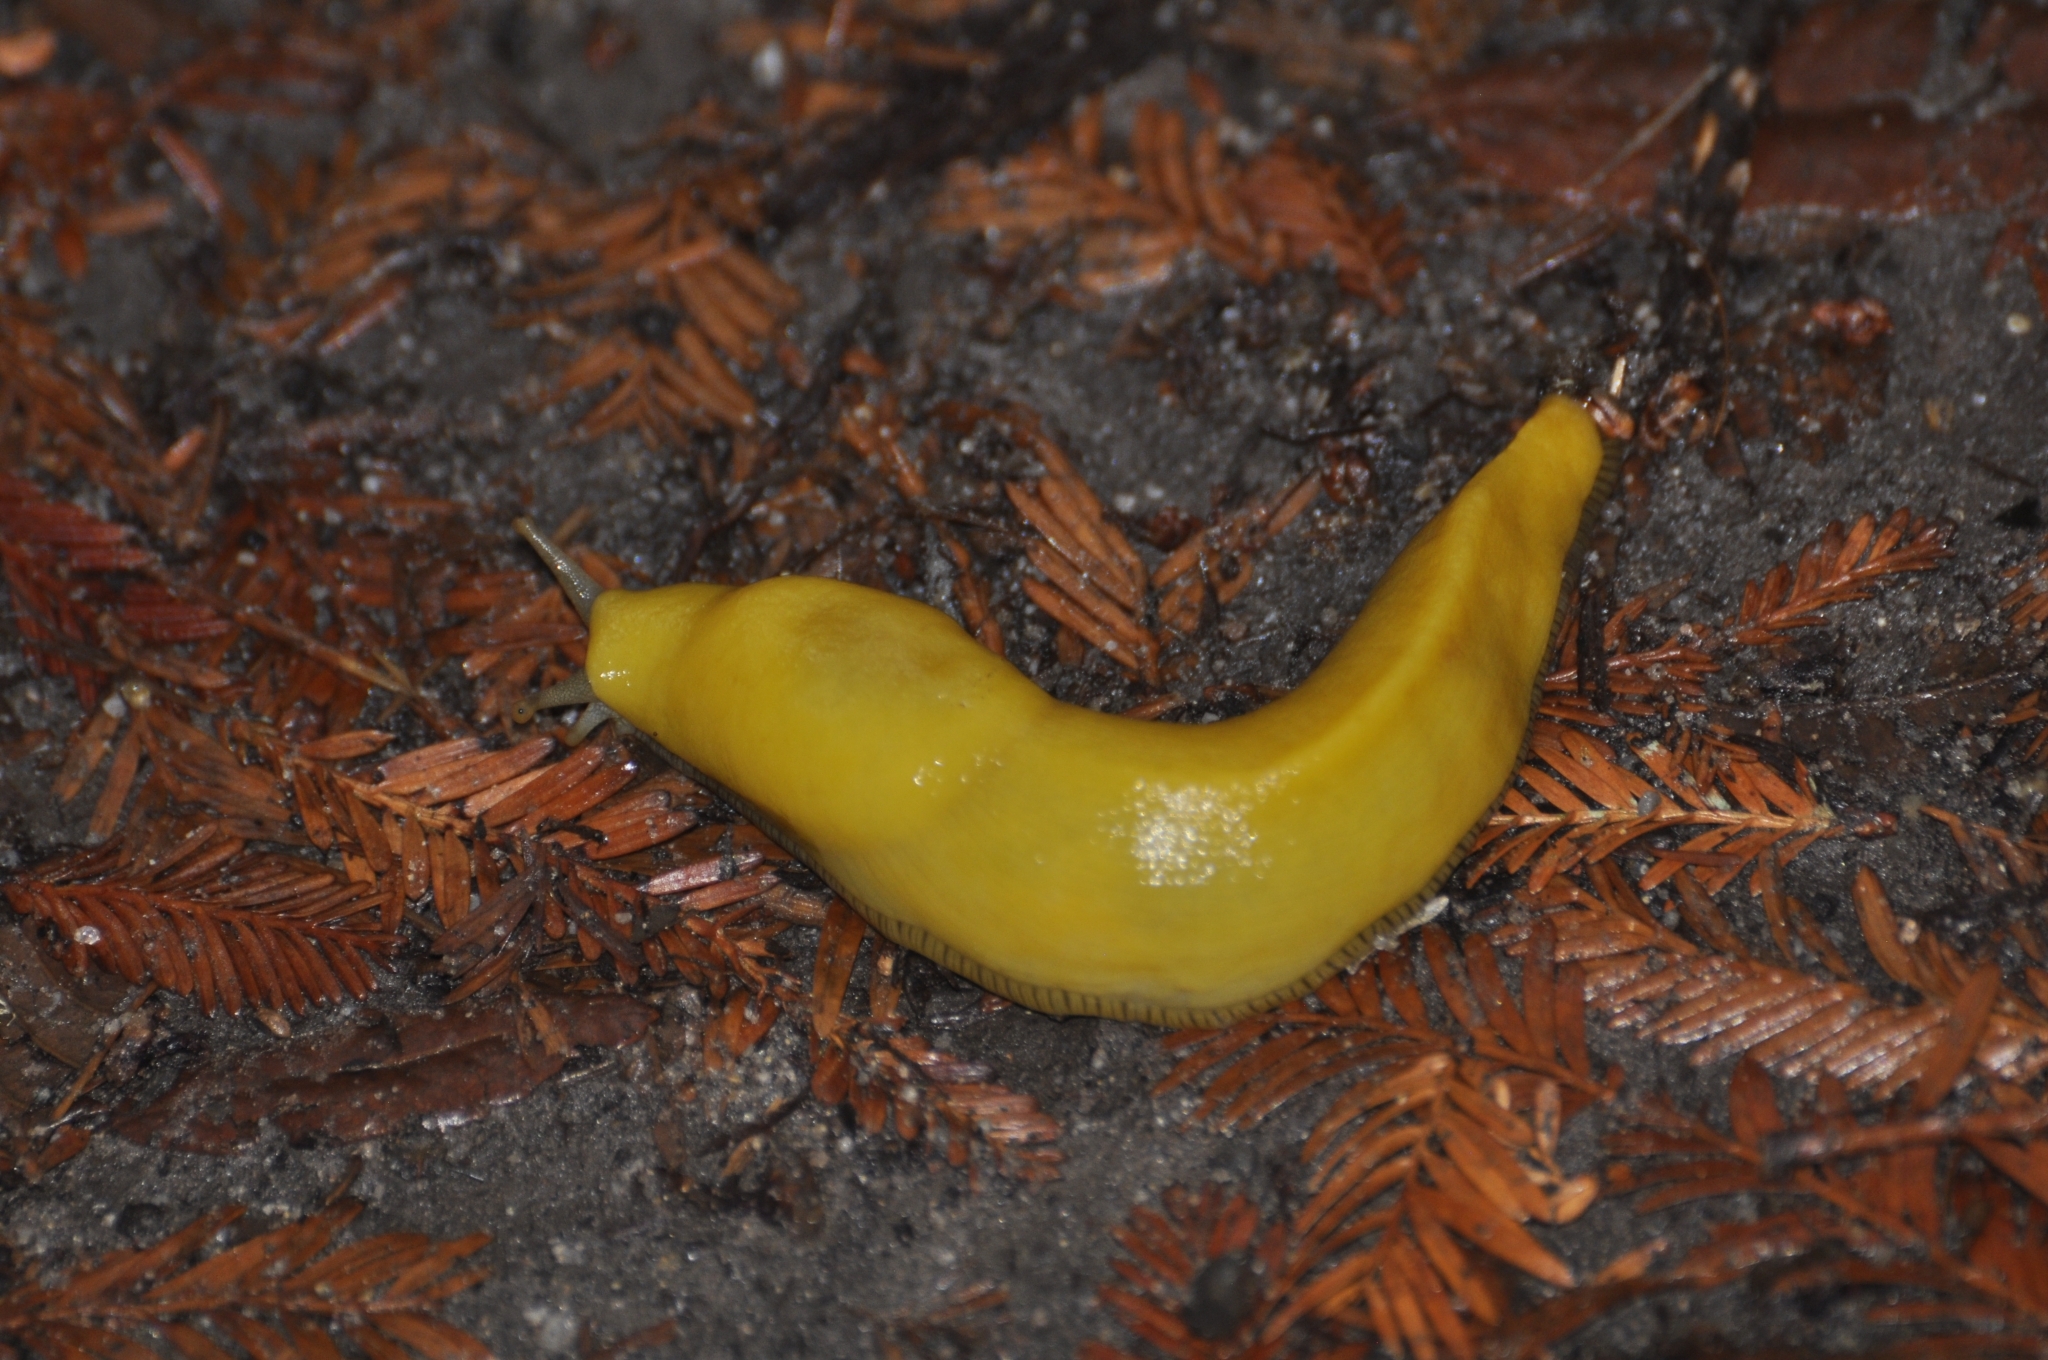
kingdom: Animalia
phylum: Mollusca
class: Gastropoda
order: Stylommatophora
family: Ariolimacidae
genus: Ariolimax
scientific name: Ariolimax dolichophallus
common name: Slender banana slug
